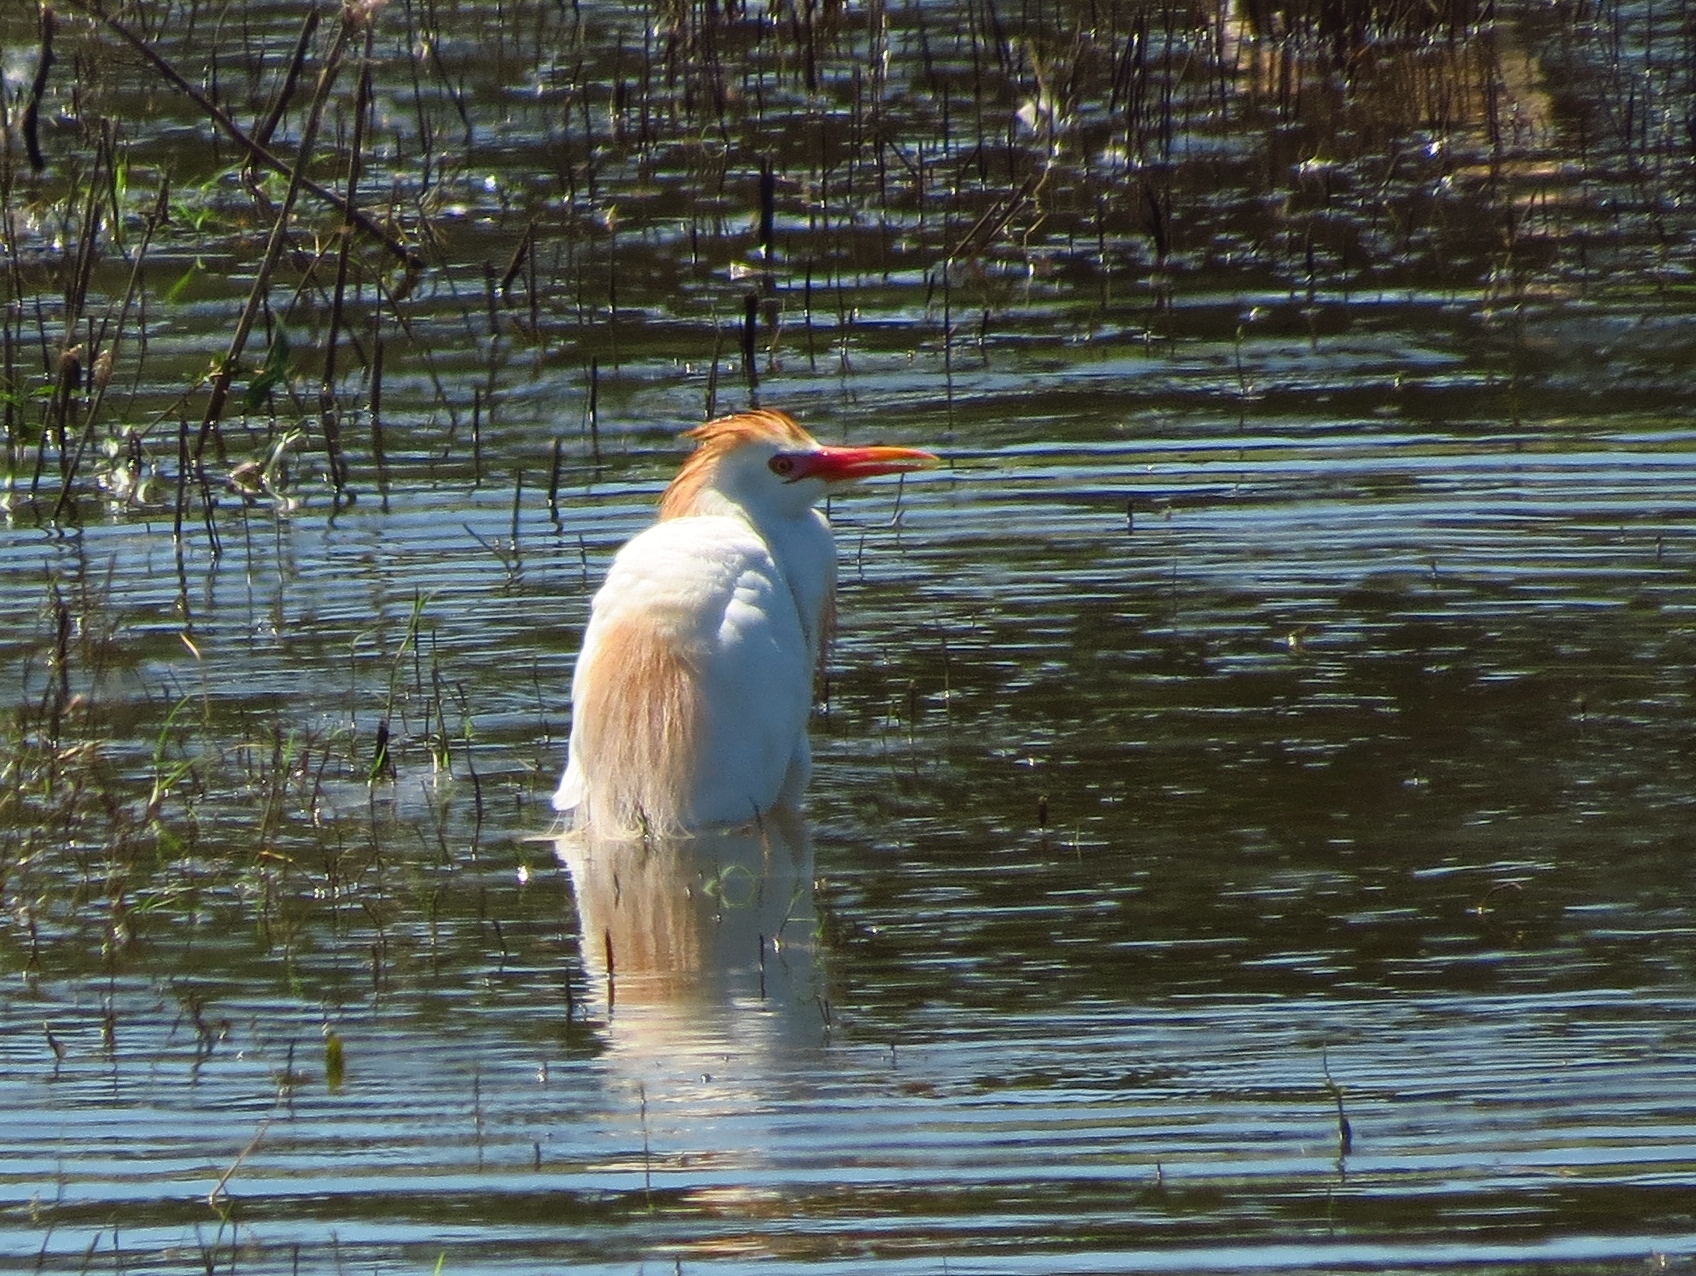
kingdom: Animalia
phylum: Chordata
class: Aves
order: Pelecaniformes
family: Ardeidae
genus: Bubulcus
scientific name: Bubulcus ibis
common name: Cattle egret
